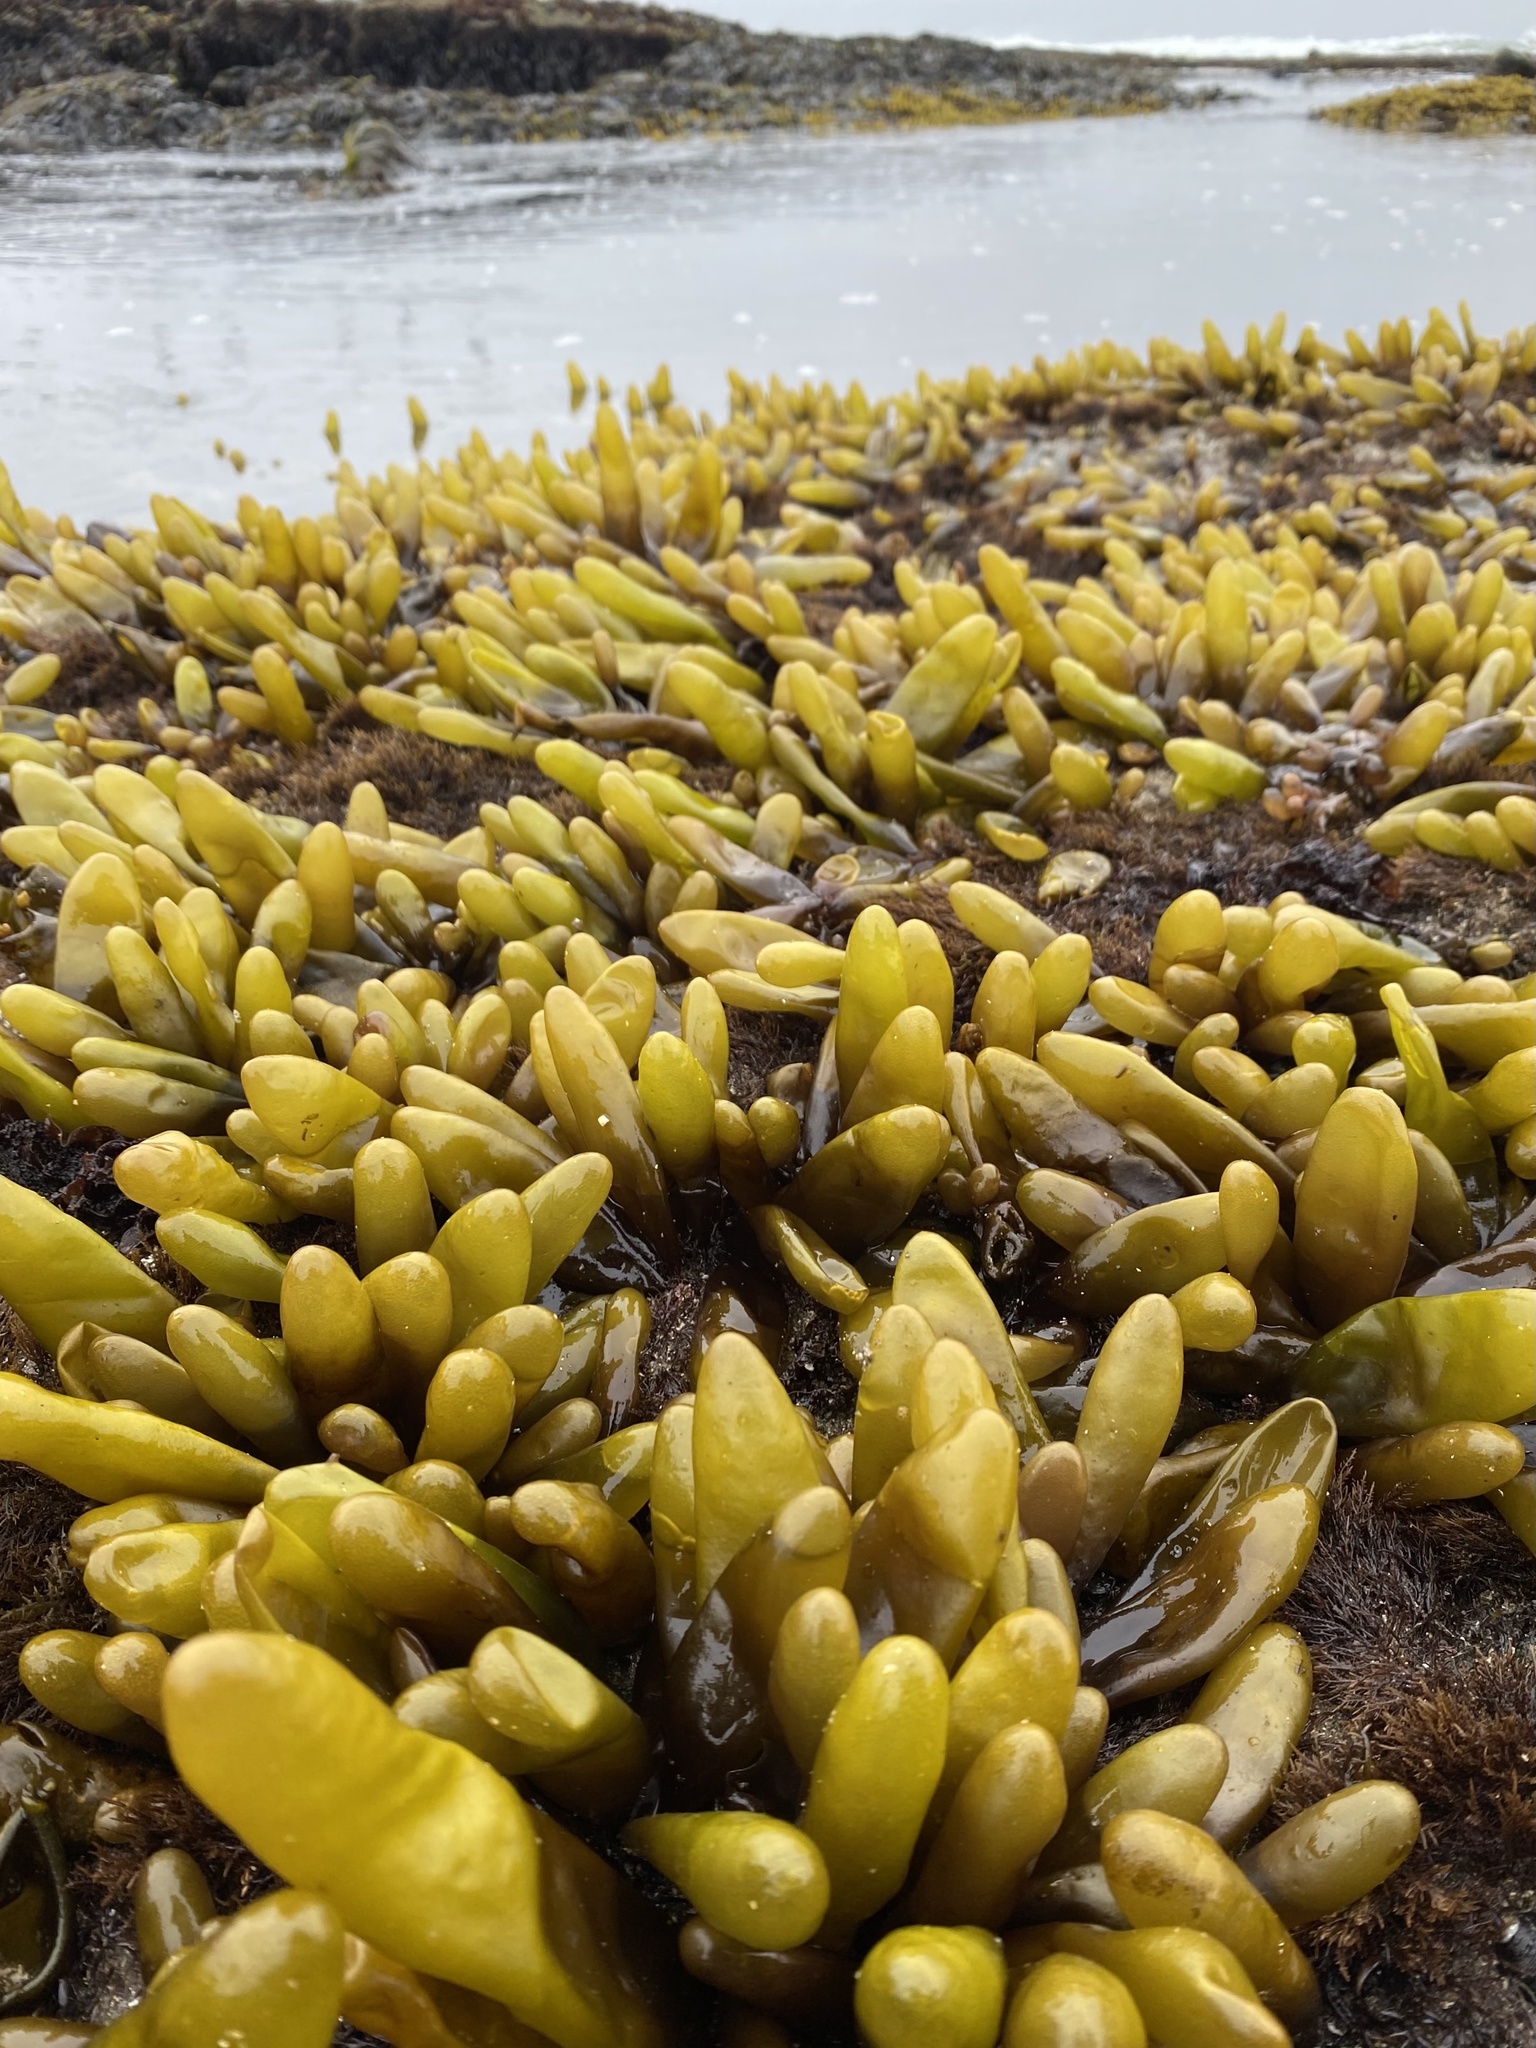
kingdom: Plantae
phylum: Rhodophyta
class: Florideophyceae
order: Palmariales
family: Palmariaceae
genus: Halosaccion
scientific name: Halosaccion glandiforme
